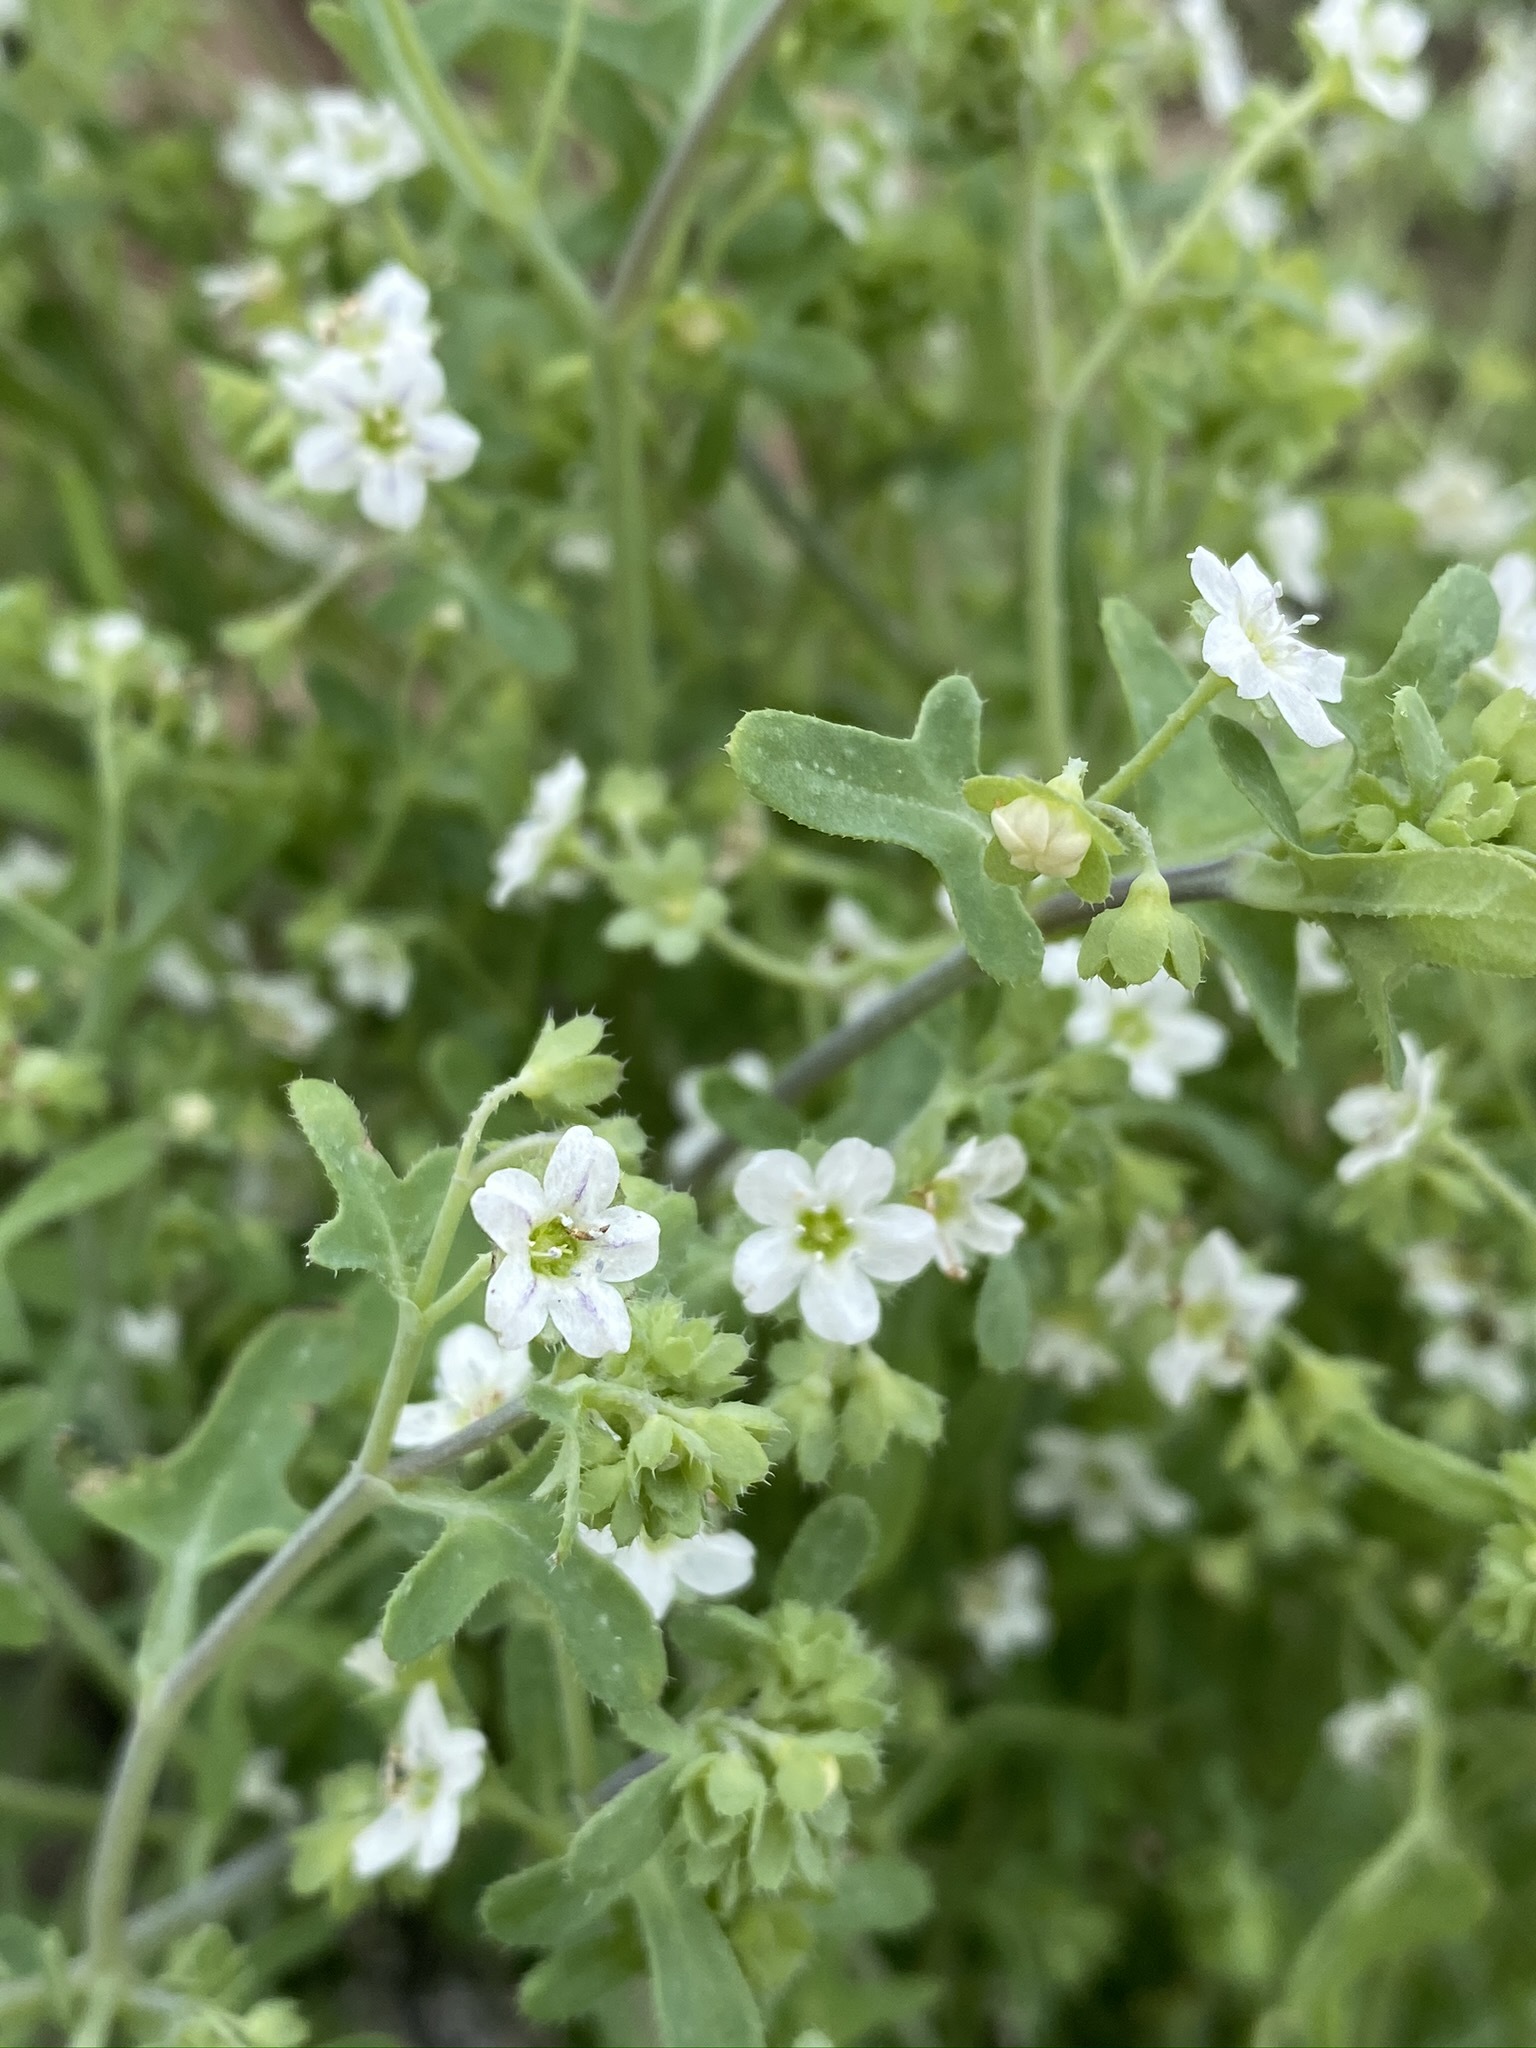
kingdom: Plantae
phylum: Tracheophyta
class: Magnoliopsida
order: Boraginales
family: Hydrophyllaceae
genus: Pholistoma
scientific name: Pholistoma membranaceum
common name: White fiesta-flower
